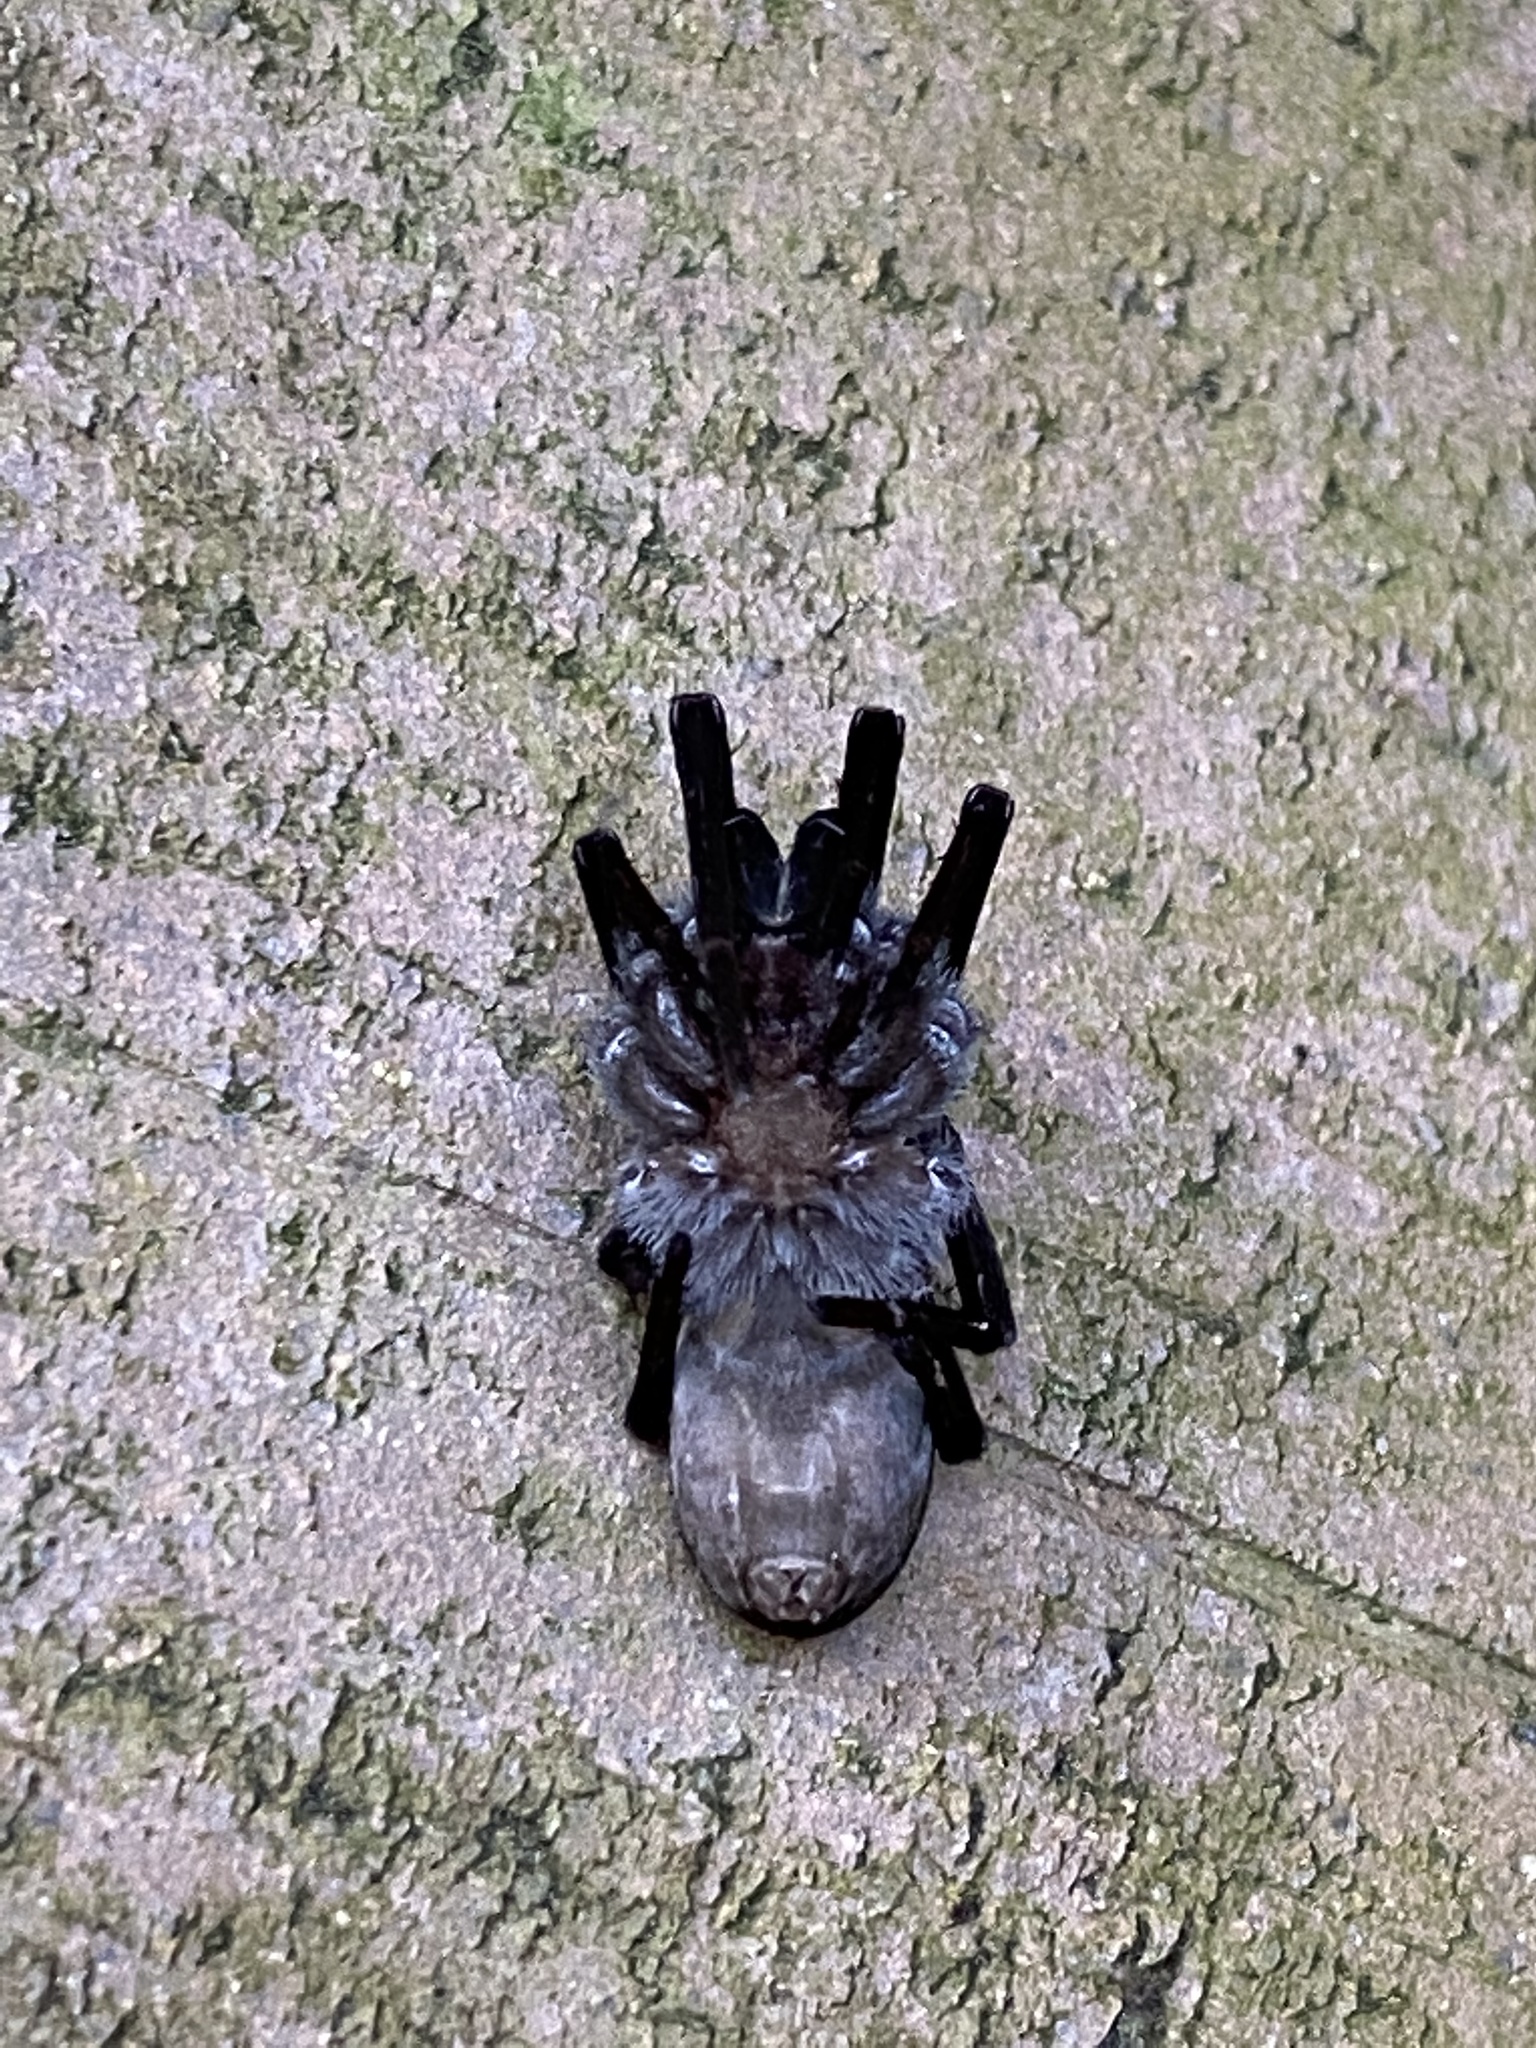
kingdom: Animalia
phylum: Arthropoda
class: Arachnida
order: Araneae
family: Filistatidae
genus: Kukulcania
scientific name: Kukulcania hibernalis
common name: Crevice weaver
